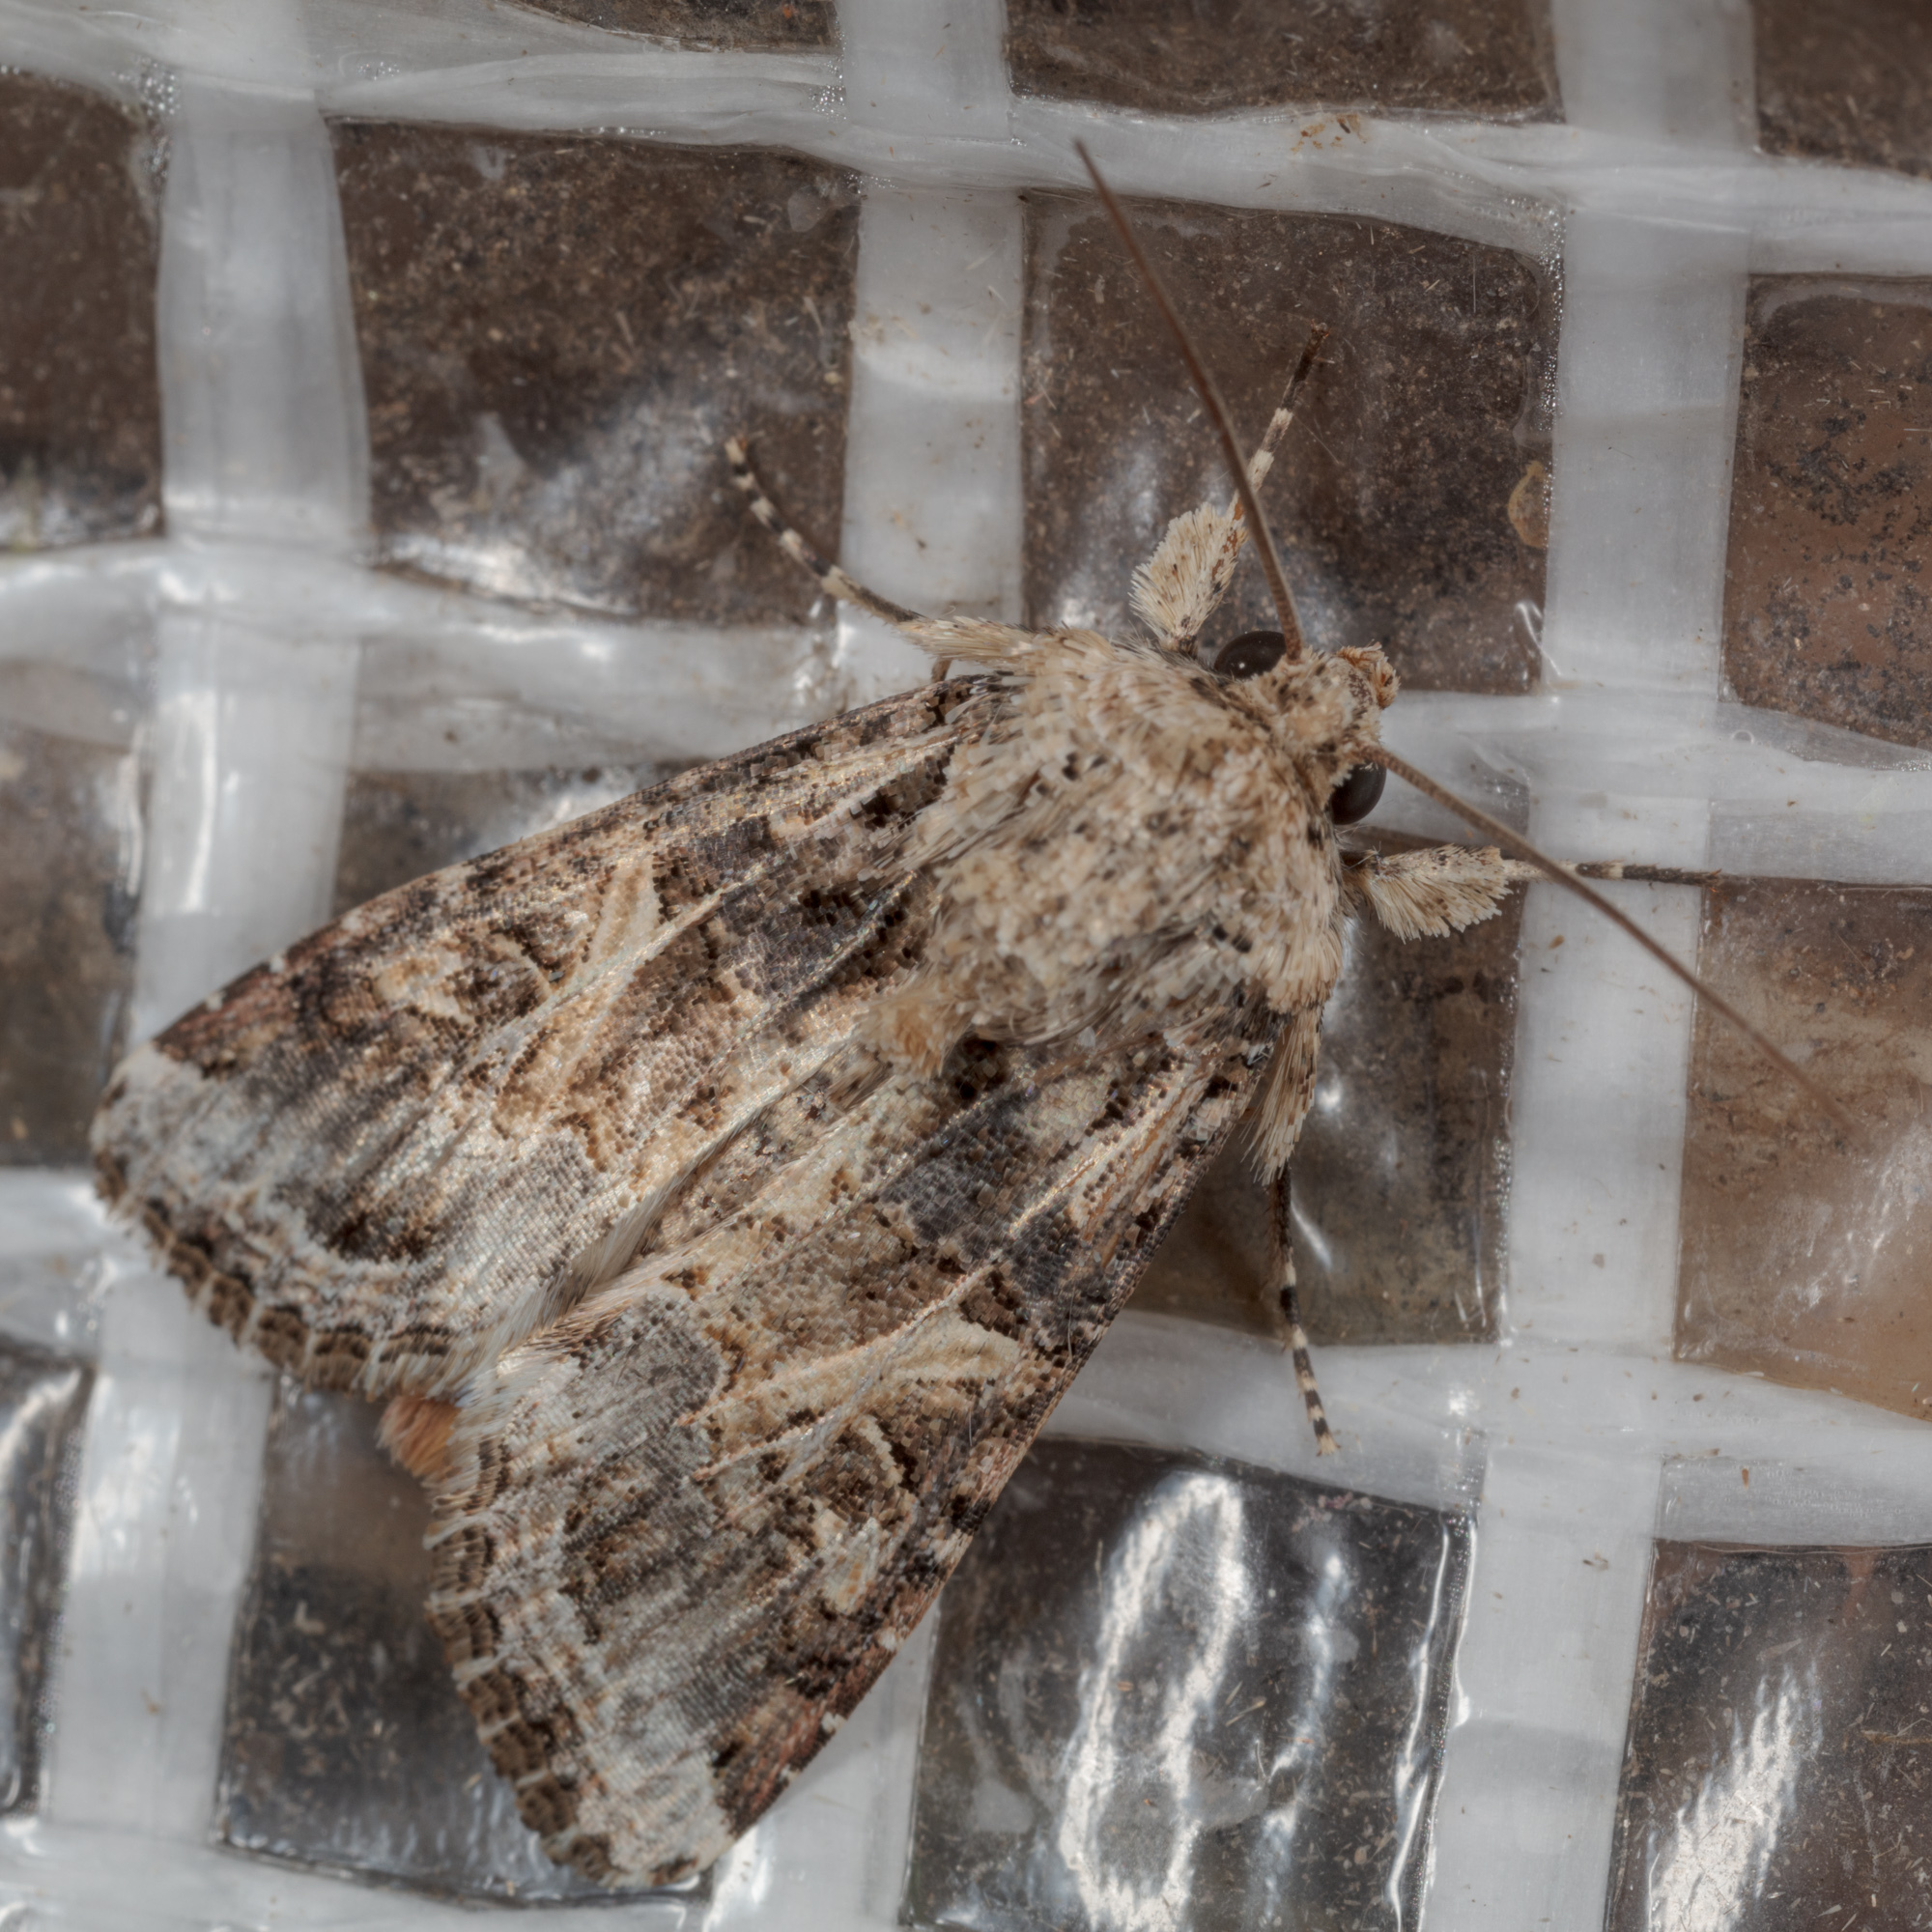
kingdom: Animalia
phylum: Arthropoda
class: Insecta
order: Lepidoptera
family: Noctuidae
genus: Spodoptera
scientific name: Spodoptera ornithogalli
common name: Yellow-striped armyworm
